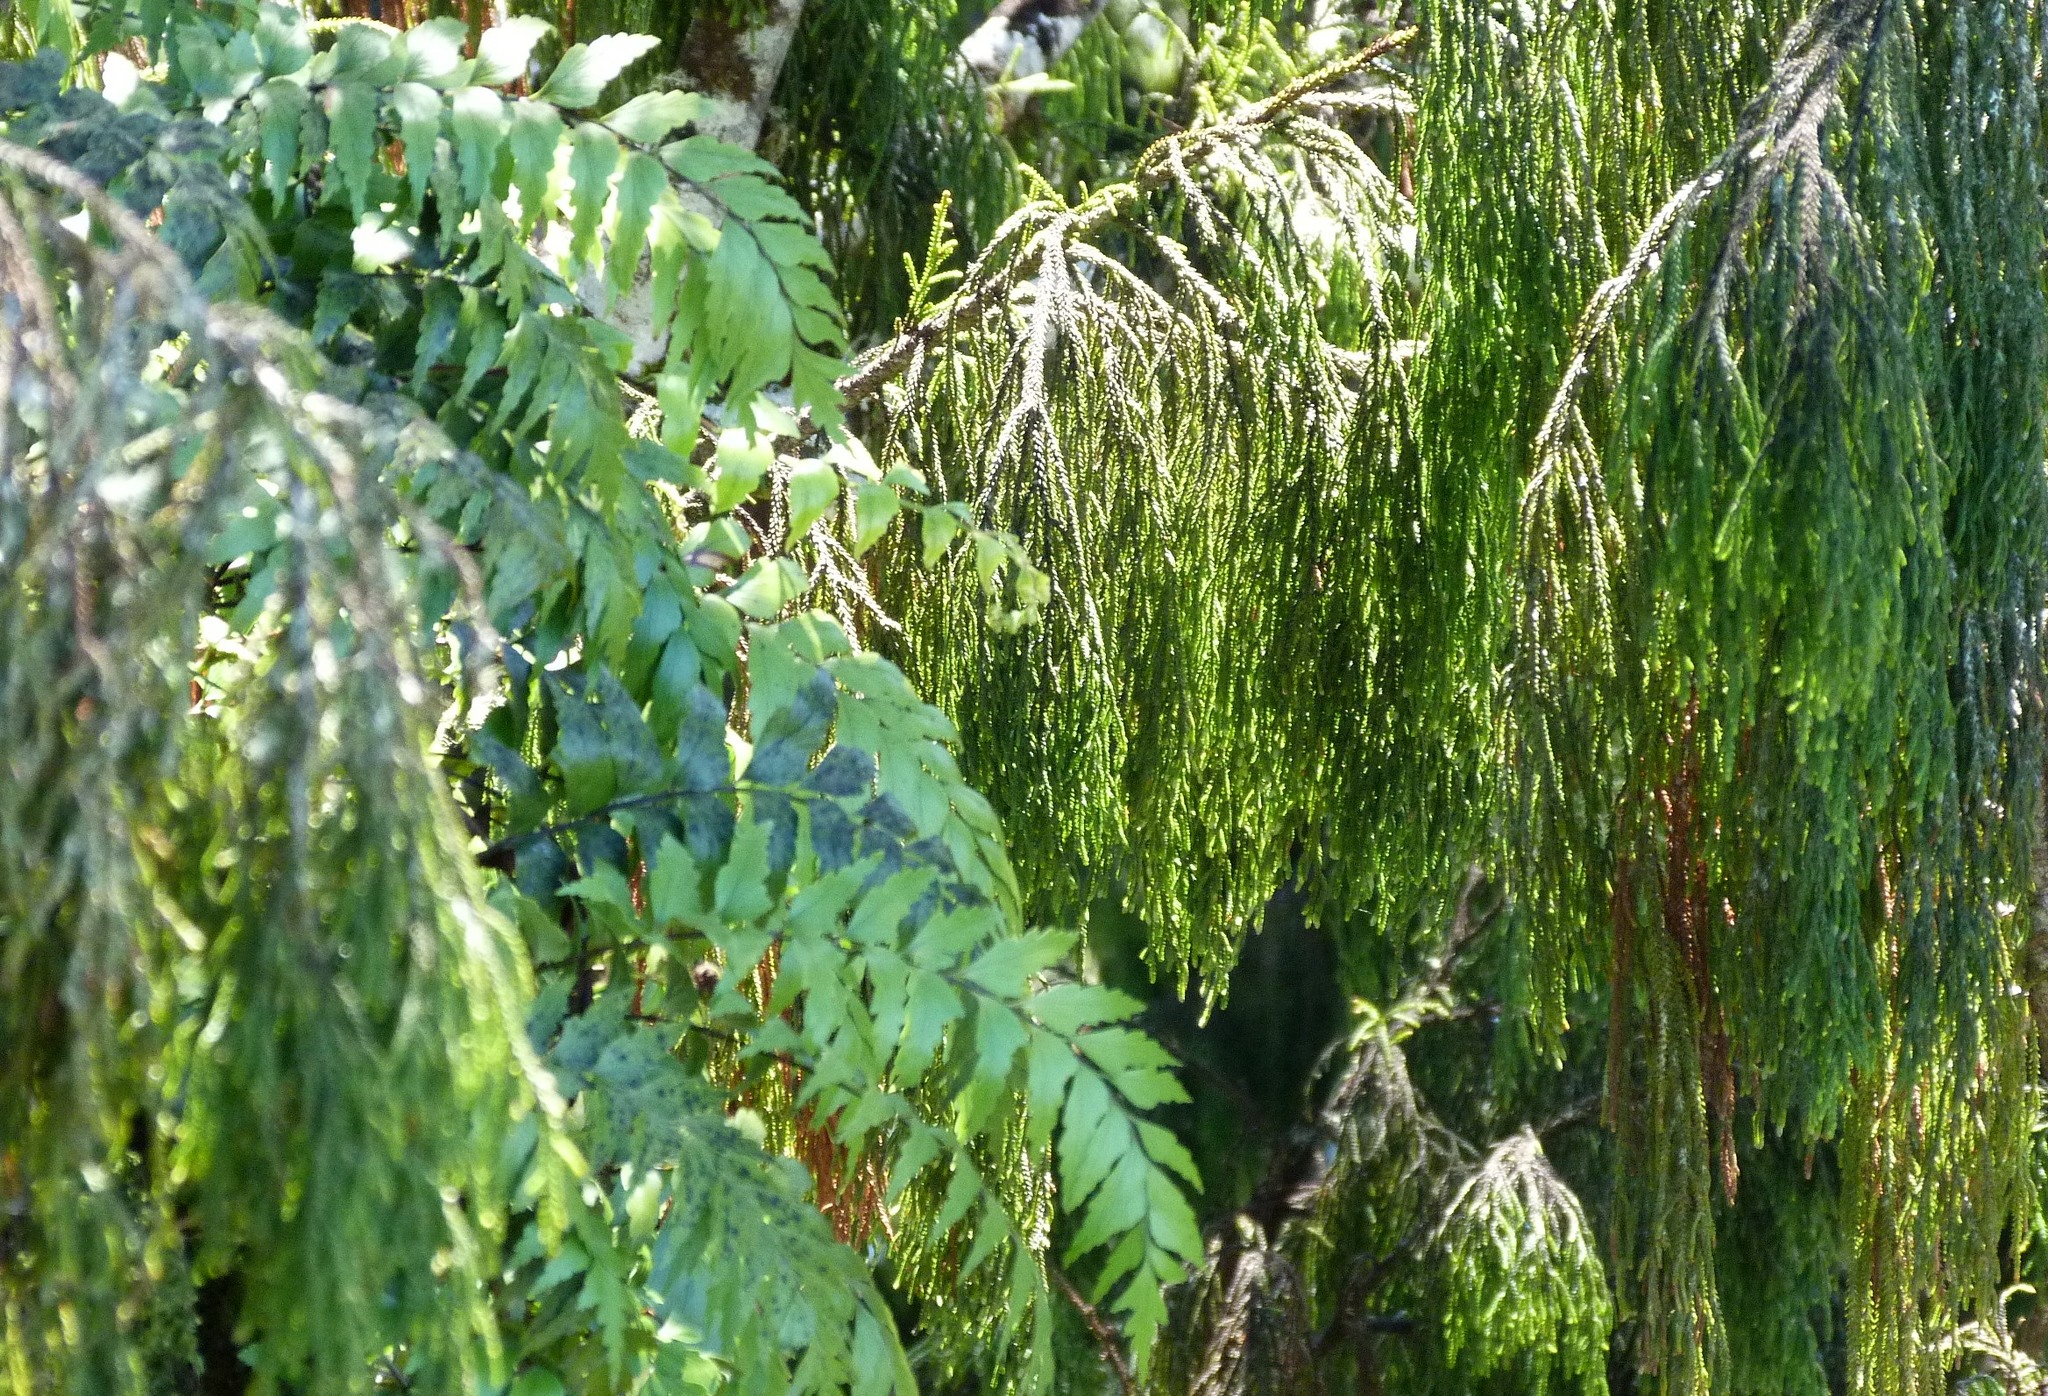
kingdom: Plantae
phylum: Tracheophyta
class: Polypodiopsida
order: Polypodiales
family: Aspleniaceae
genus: Asplenium
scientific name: Asplenium polyodon
